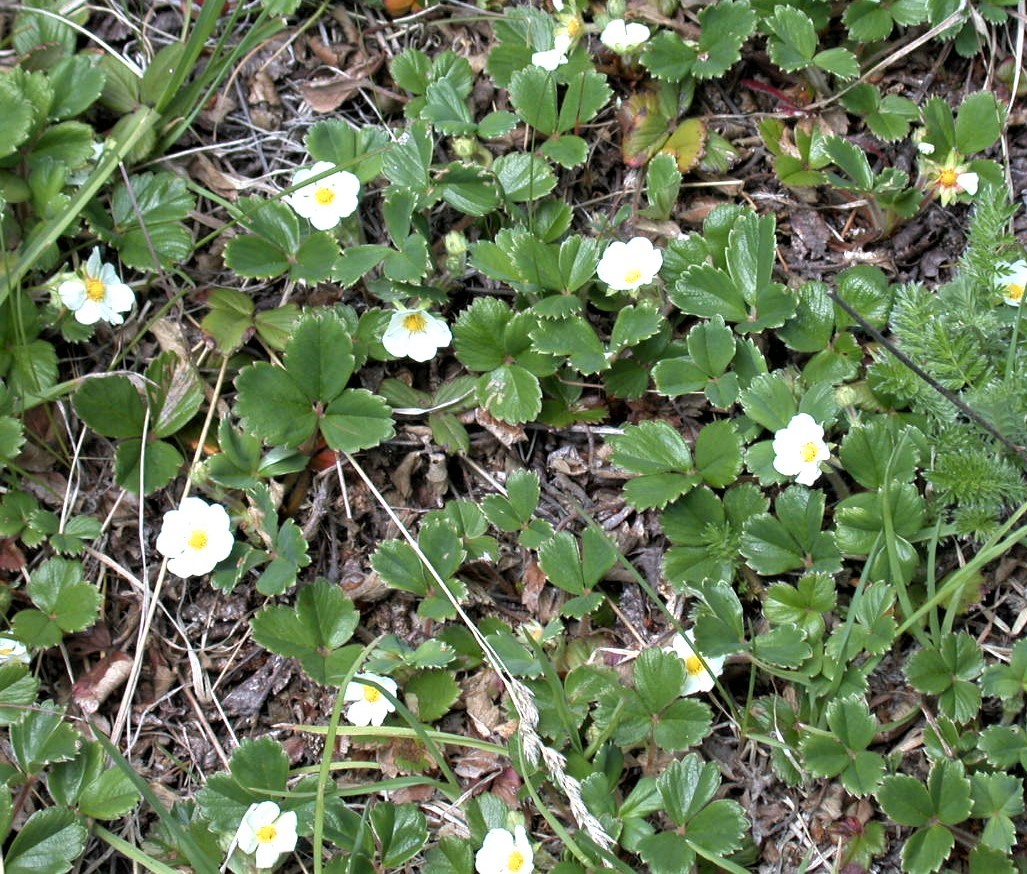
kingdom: Plantae
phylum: Tracheophyta
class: Magnoliopsida
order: Rosales
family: Rosaceae
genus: Fragaria
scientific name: Fragaria chiloensis
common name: Beach strawberry
